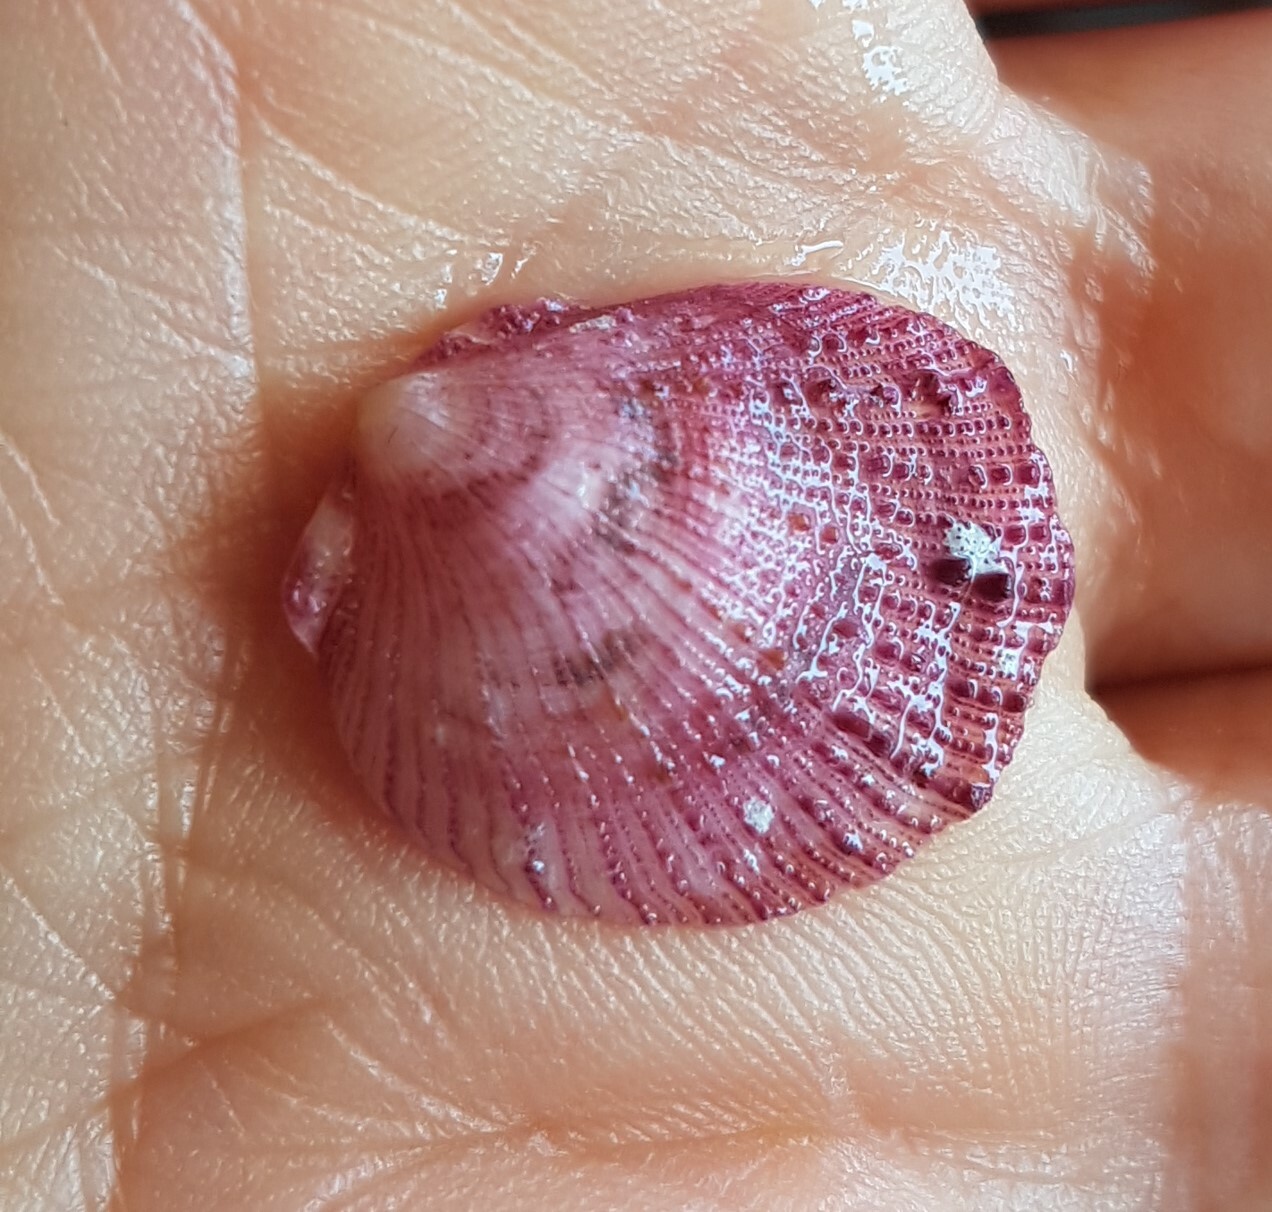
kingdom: Animalia
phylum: Mollusca
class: Bivalvia
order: Pectinida
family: Spondylidae
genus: Spondylus
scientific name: Spondylus gaederopus
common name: European thorny oyster
